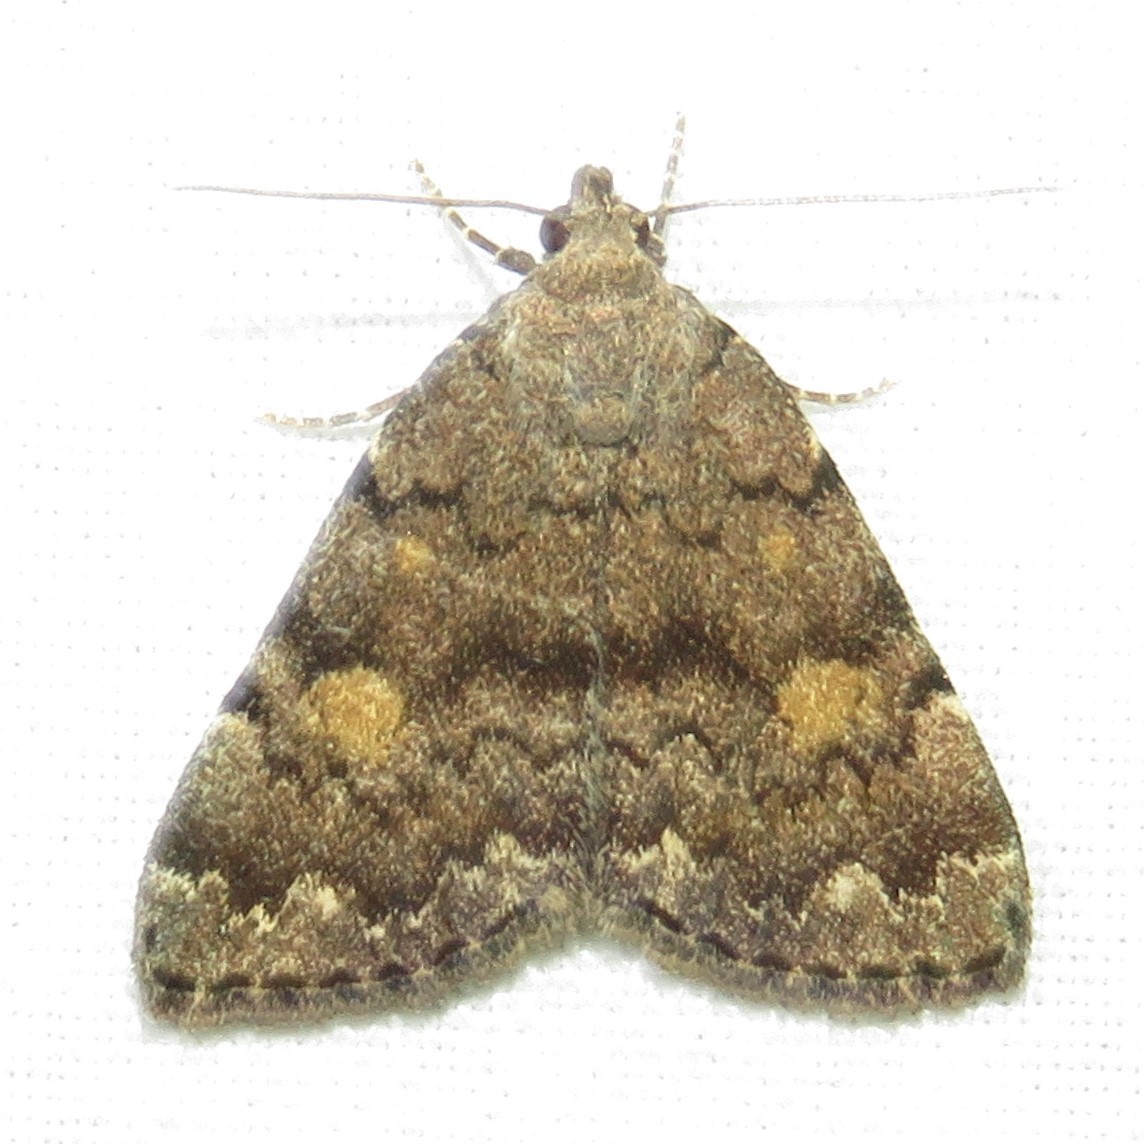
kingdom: Animalia
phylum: Arthropoda
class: Insecta
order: Lepidoptera
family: Erebidae
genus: Idia
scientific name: Idia aemula
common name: Common idia moth
